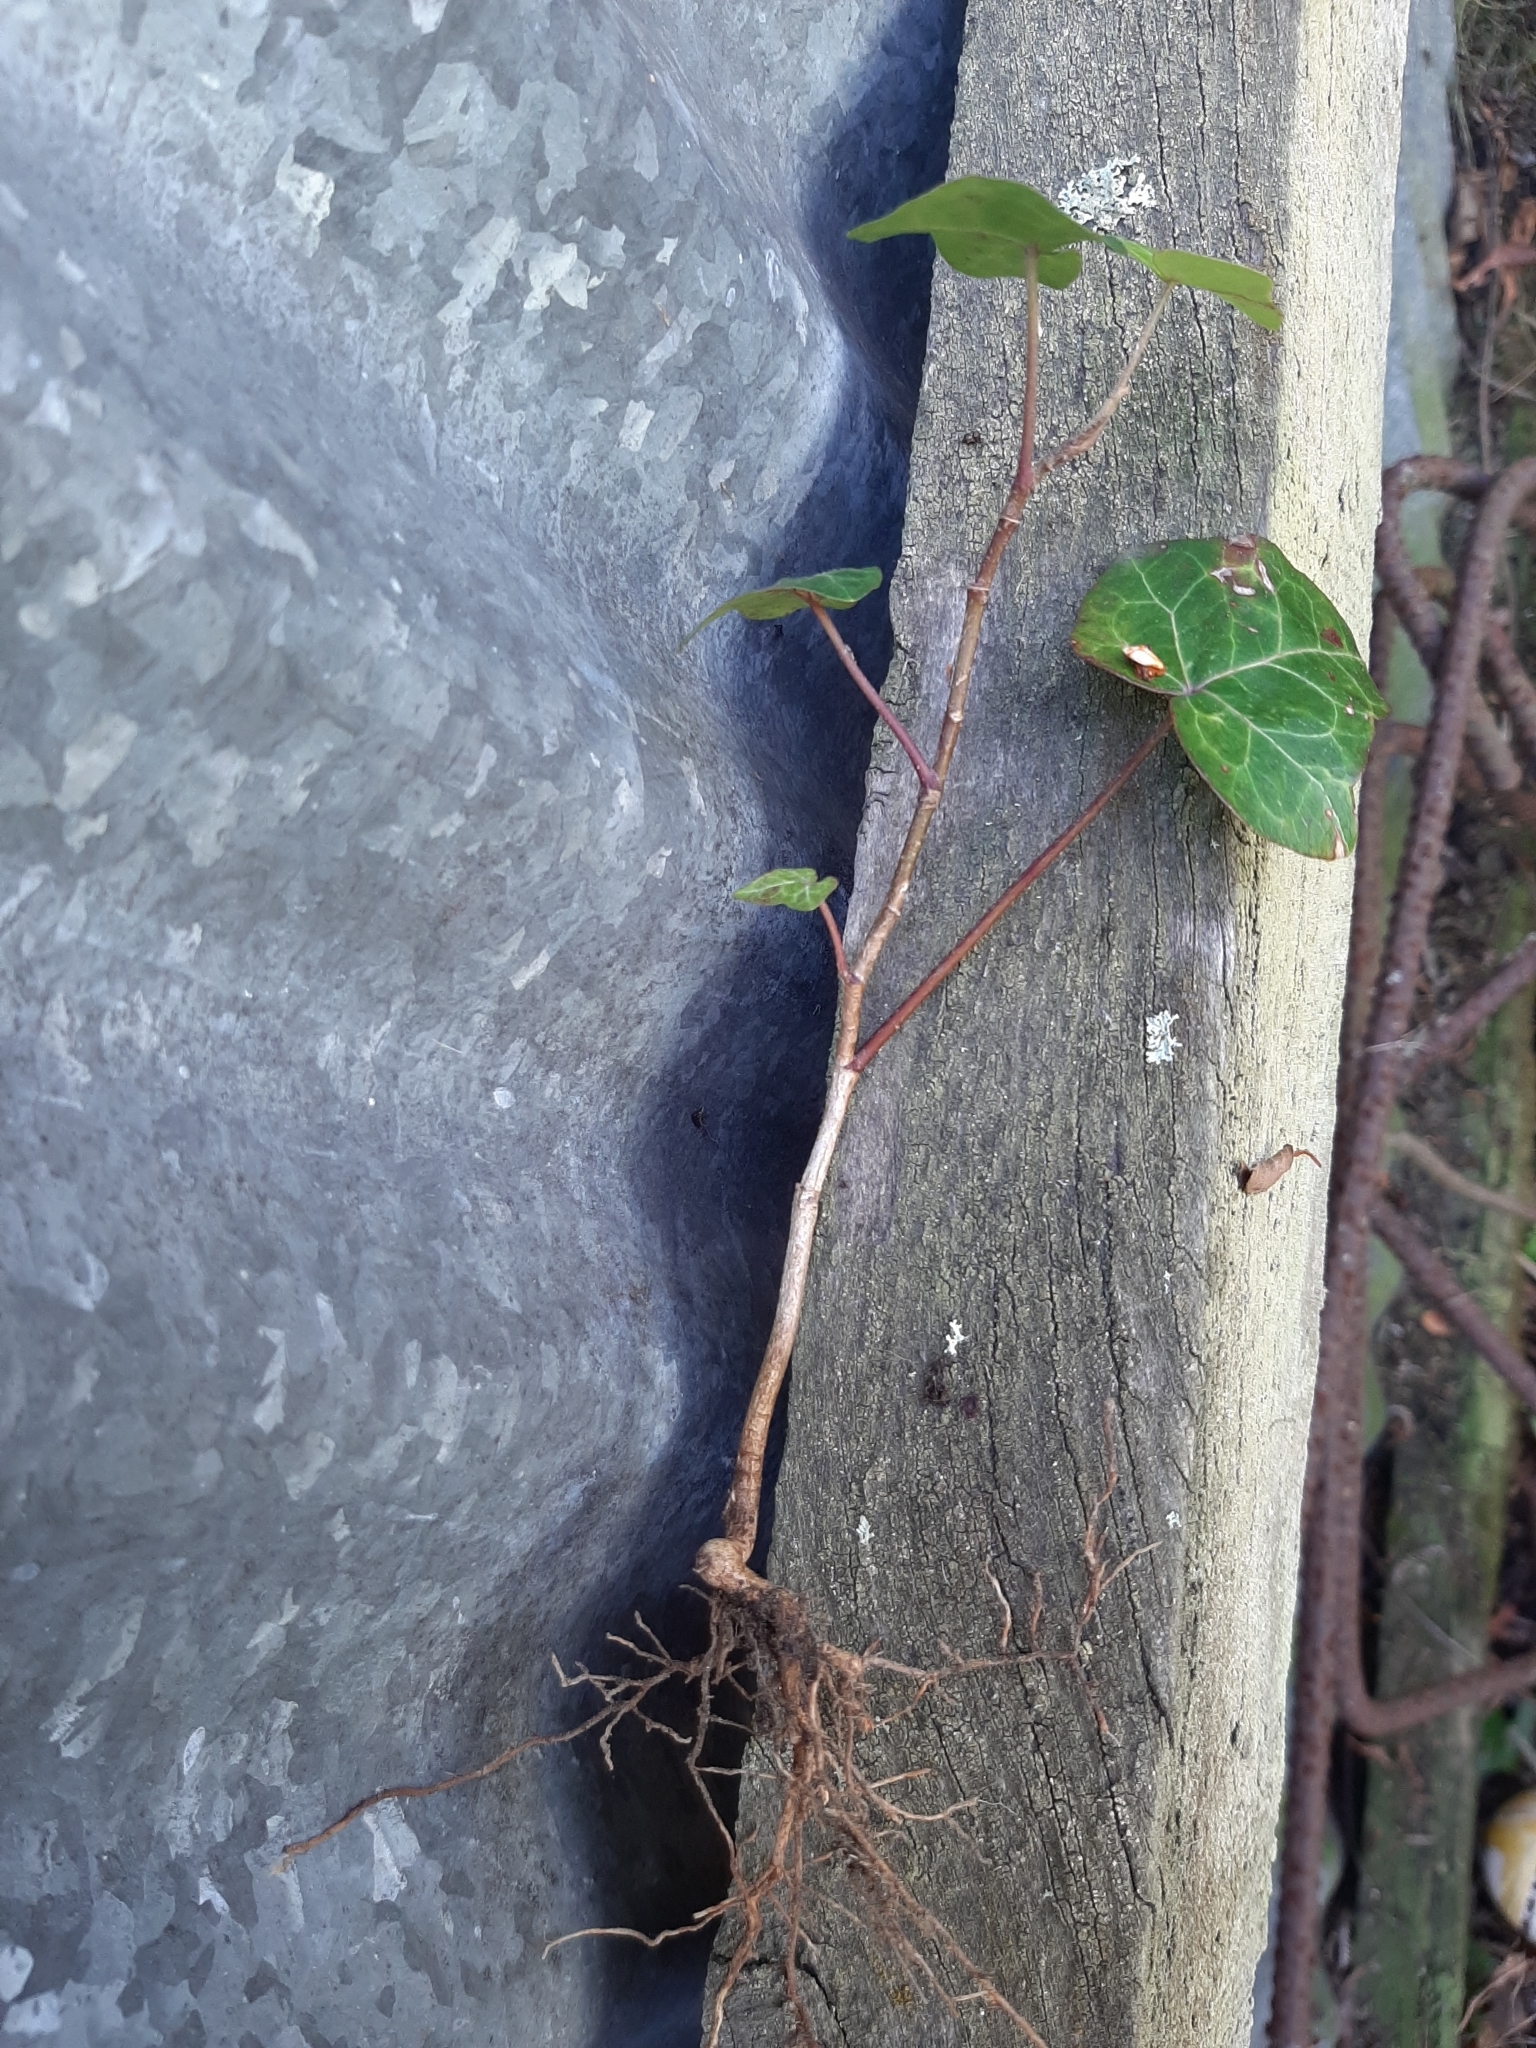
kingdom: Plantae
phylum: Tracheophyta
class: Magnoliopsida
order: Apiales
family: Araliaceae
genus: Hedera
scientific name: Hedera helix
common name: Ivy
